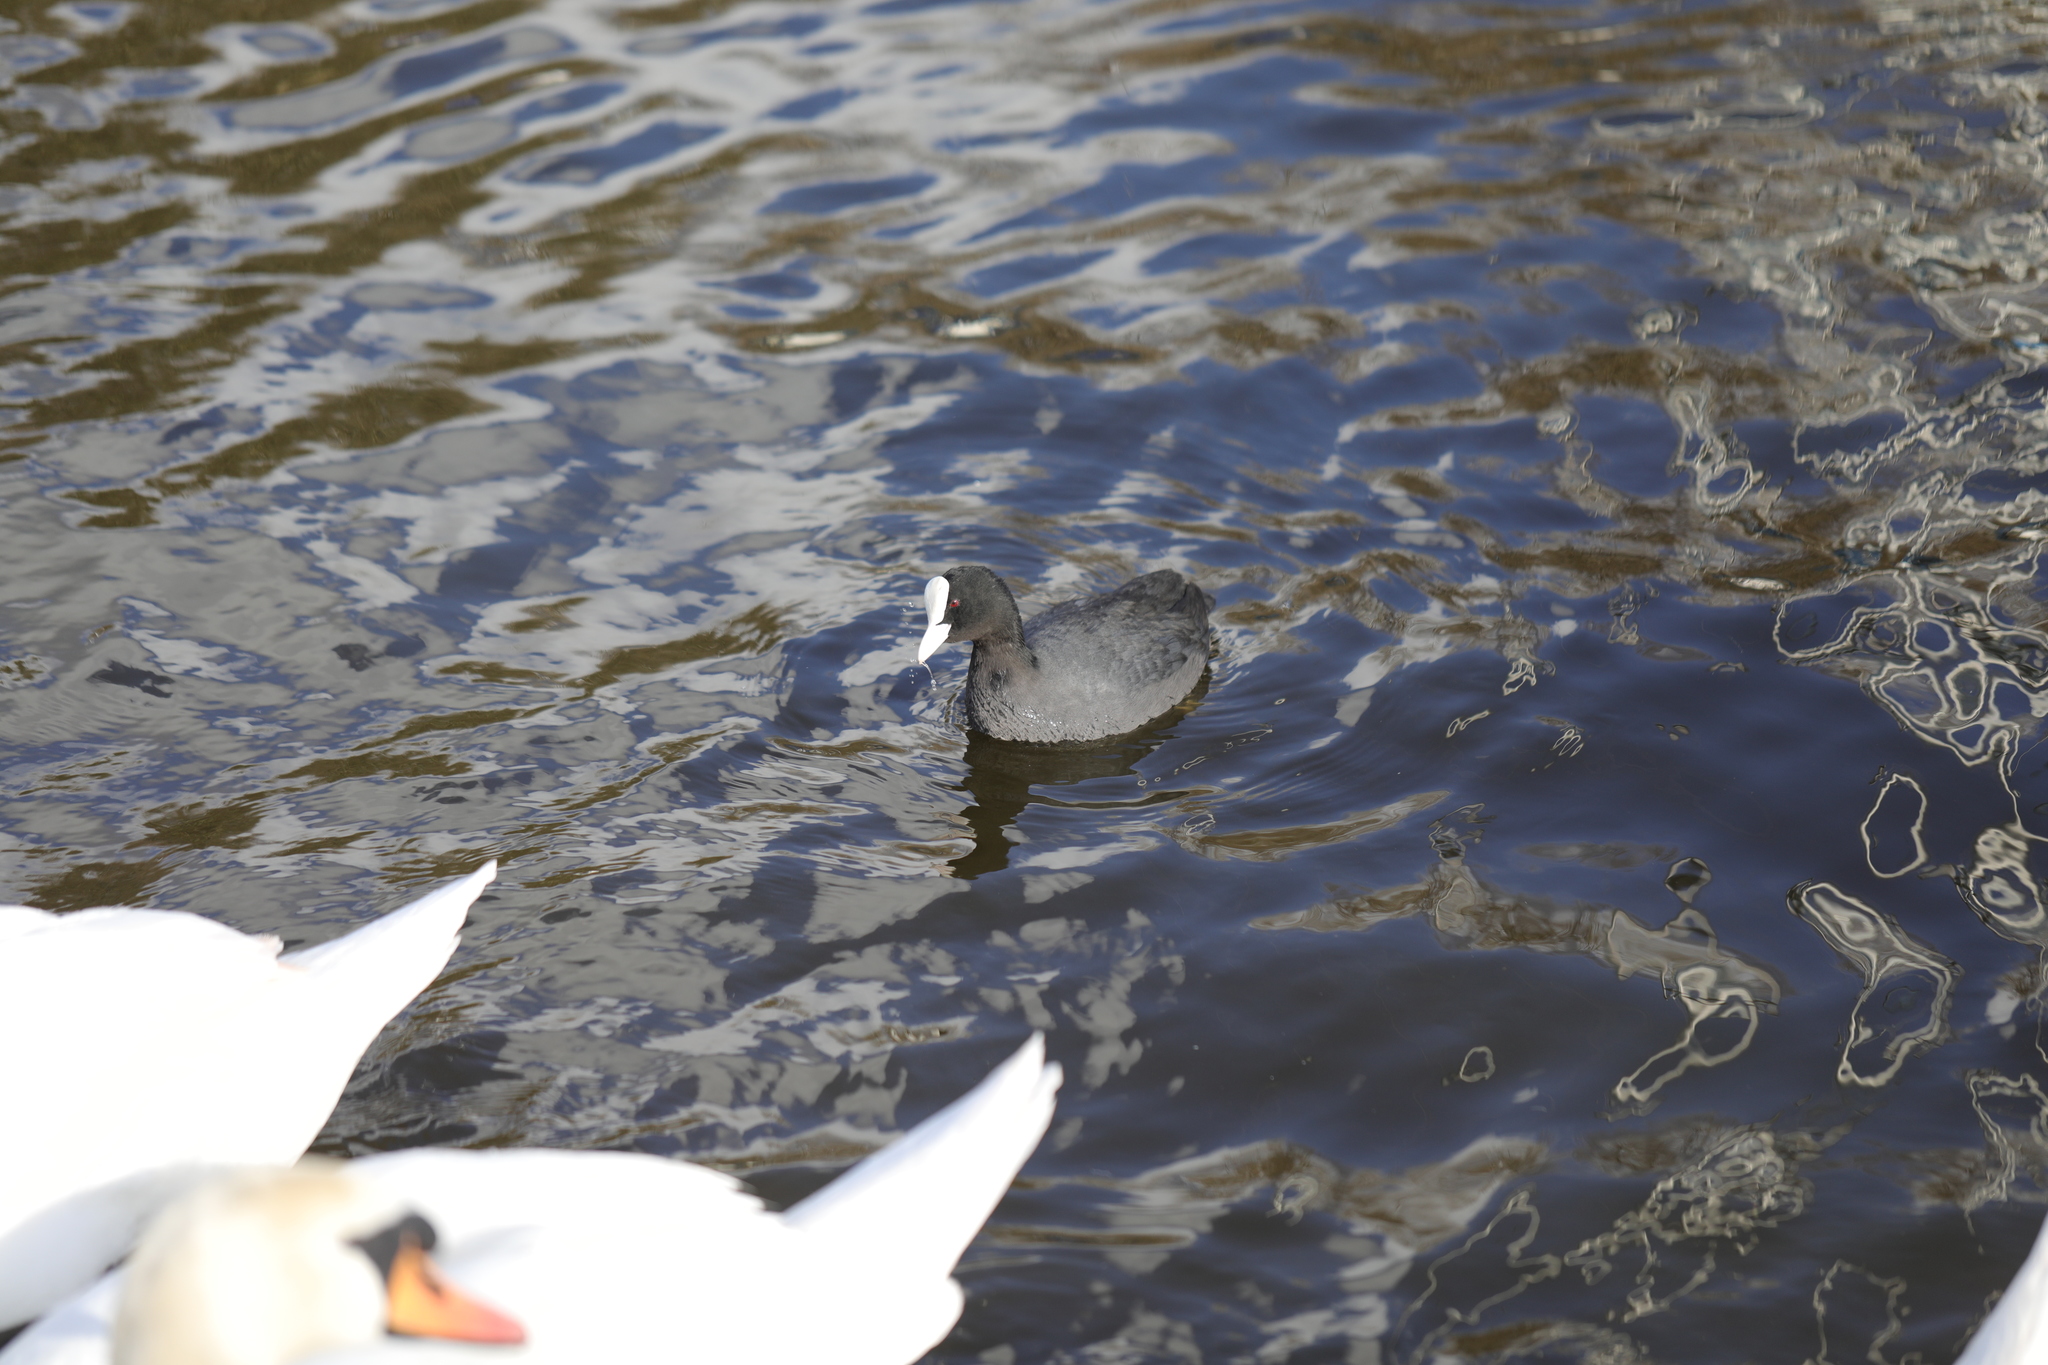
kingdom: Animalia
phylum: Chordata
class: Aves
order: Gruiformes
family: Rallidae
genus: Fulica
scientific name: Fulica atra
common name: Eurasian coot
